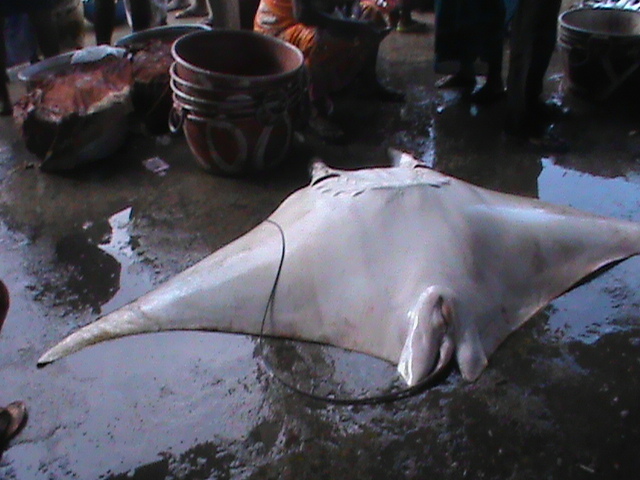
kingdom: Animalia
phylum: Chordata
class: Elasmobranchii
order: Myliobatiformes
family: Myliobatidae
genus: Mobula
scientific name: Mobula mobular
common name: Devil ray
